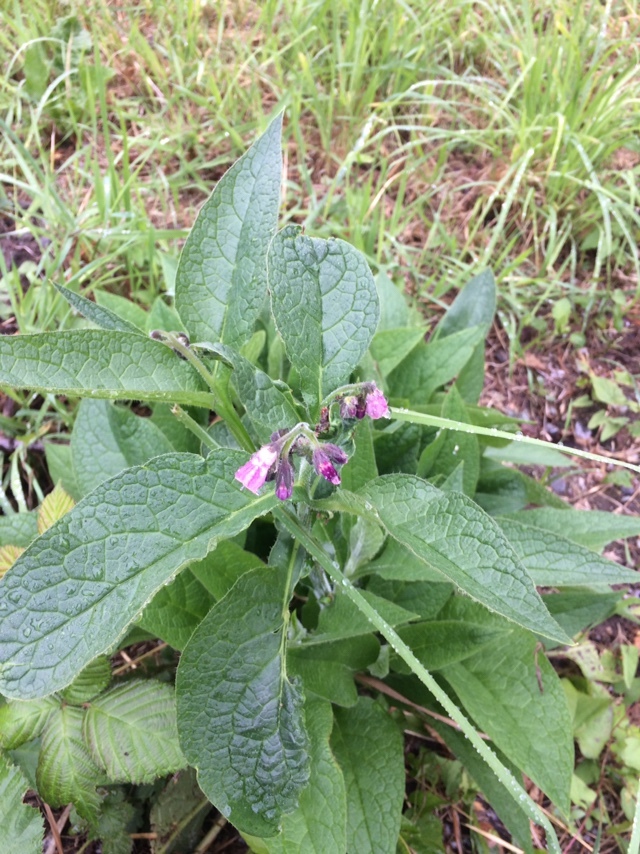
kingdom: Plantae
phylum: Tracheophyta
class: Magnoliopsida
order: Boraginales
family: Boraginaceae
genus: Symphytum
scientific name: Symphytum officinale
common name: Common comfrey
